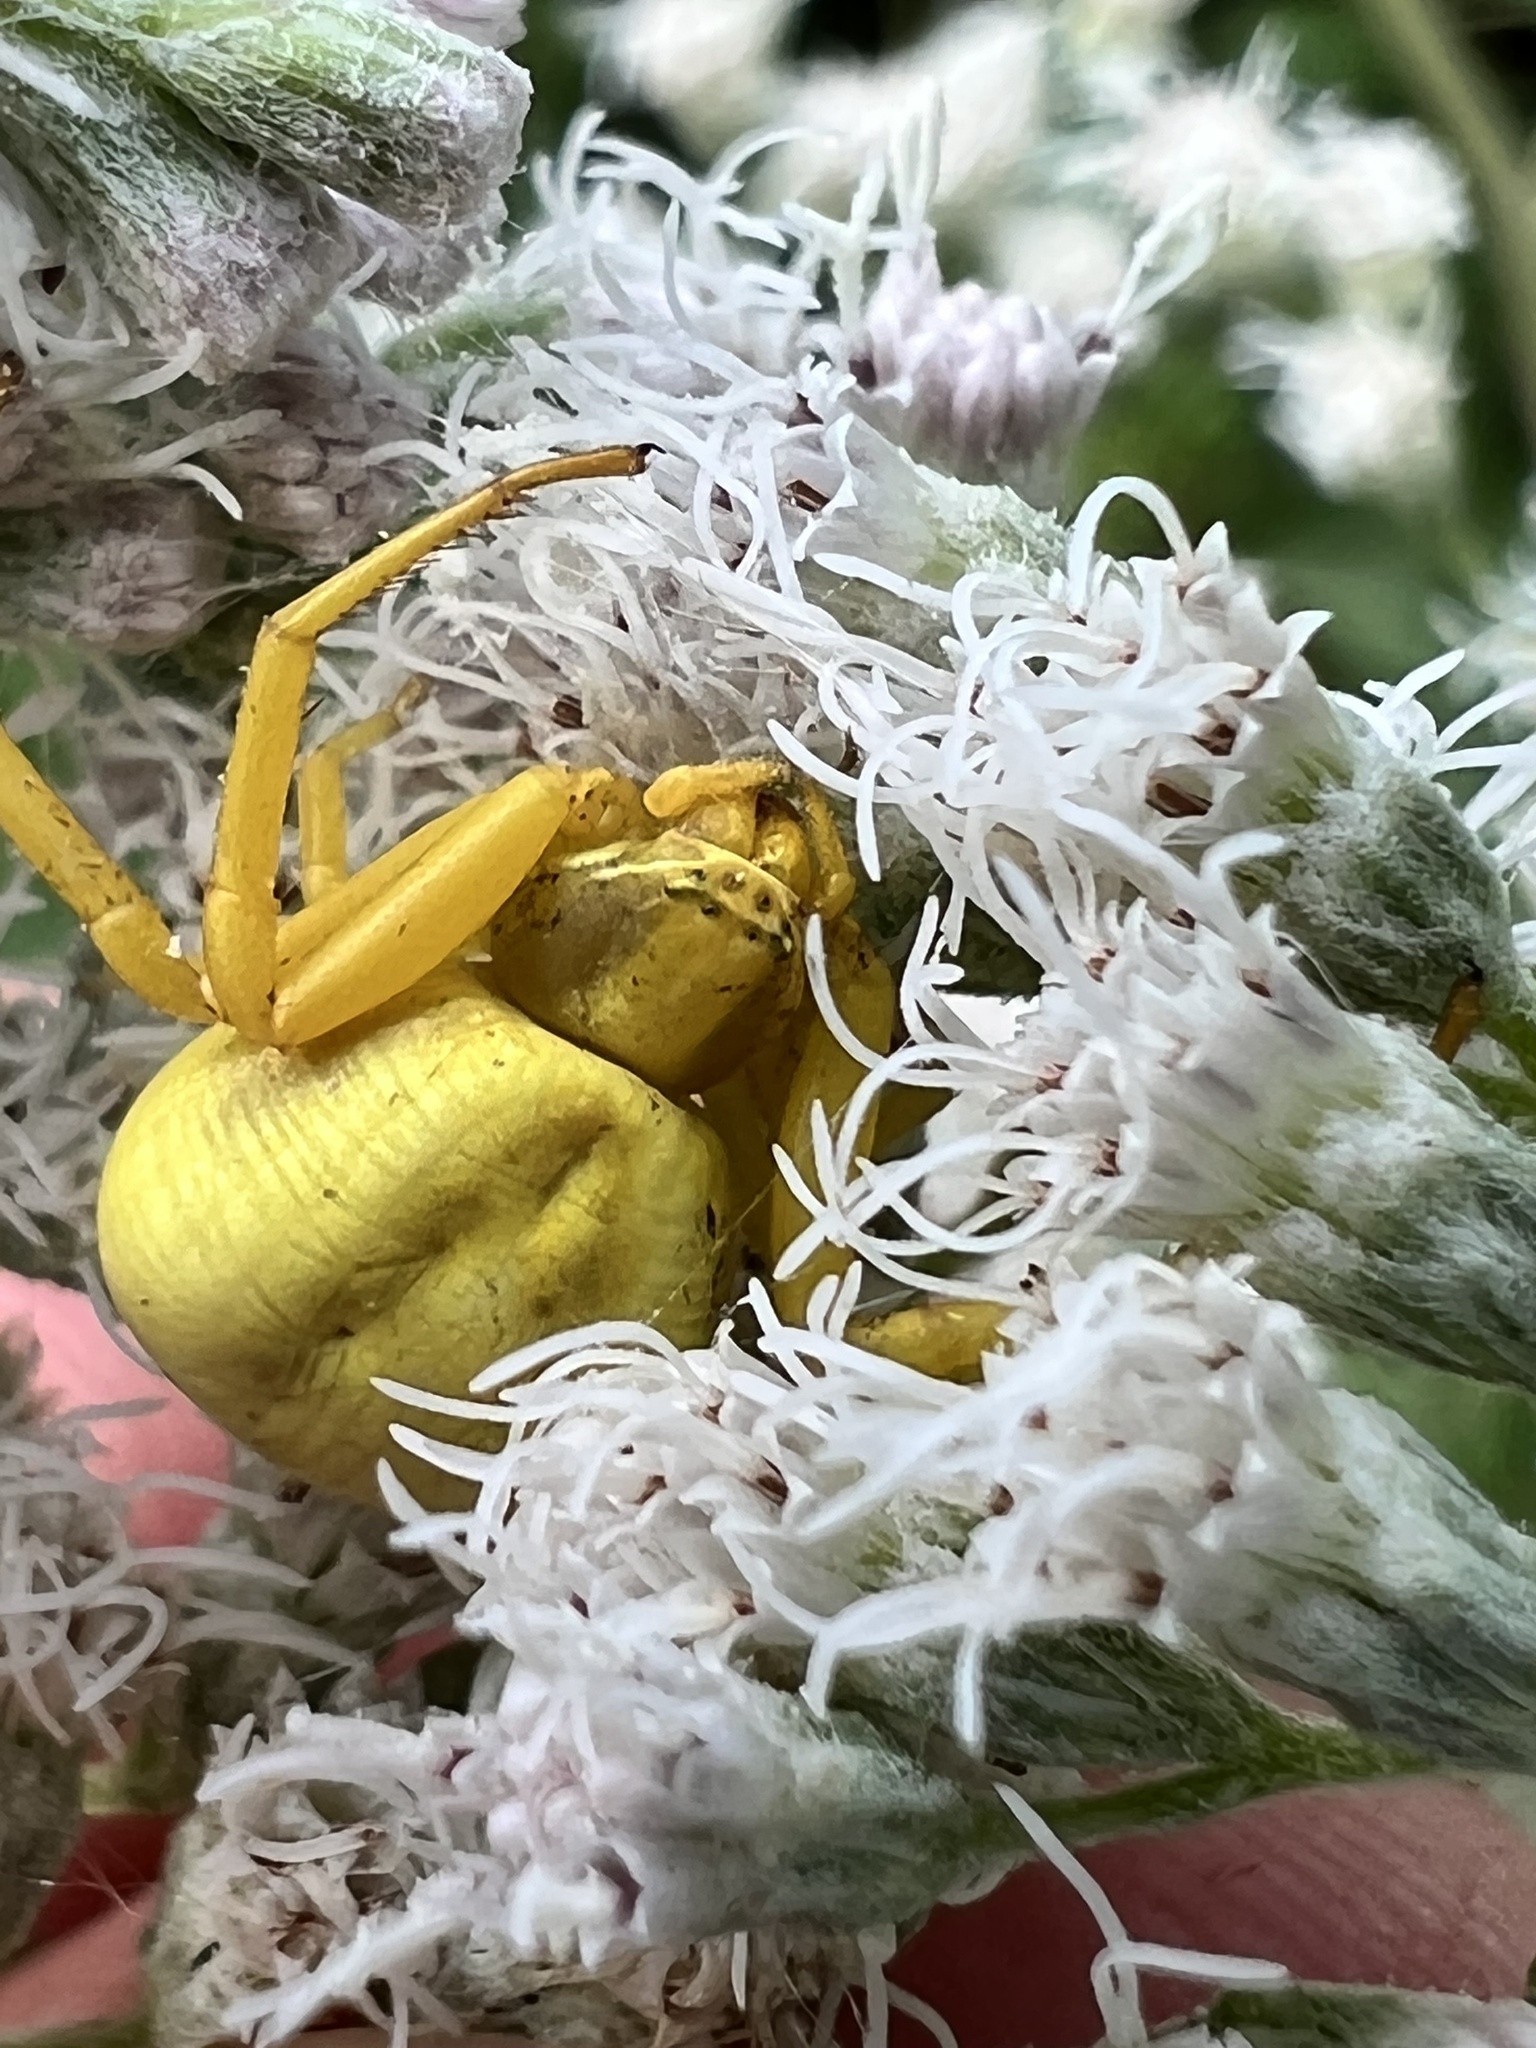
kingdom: Animalia
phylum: Arthropoda
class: Arachnida
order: Araneae
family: Thomisidae
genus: Misumenoides
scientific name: Misumenoides formosipes
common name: White-banded crab spider
